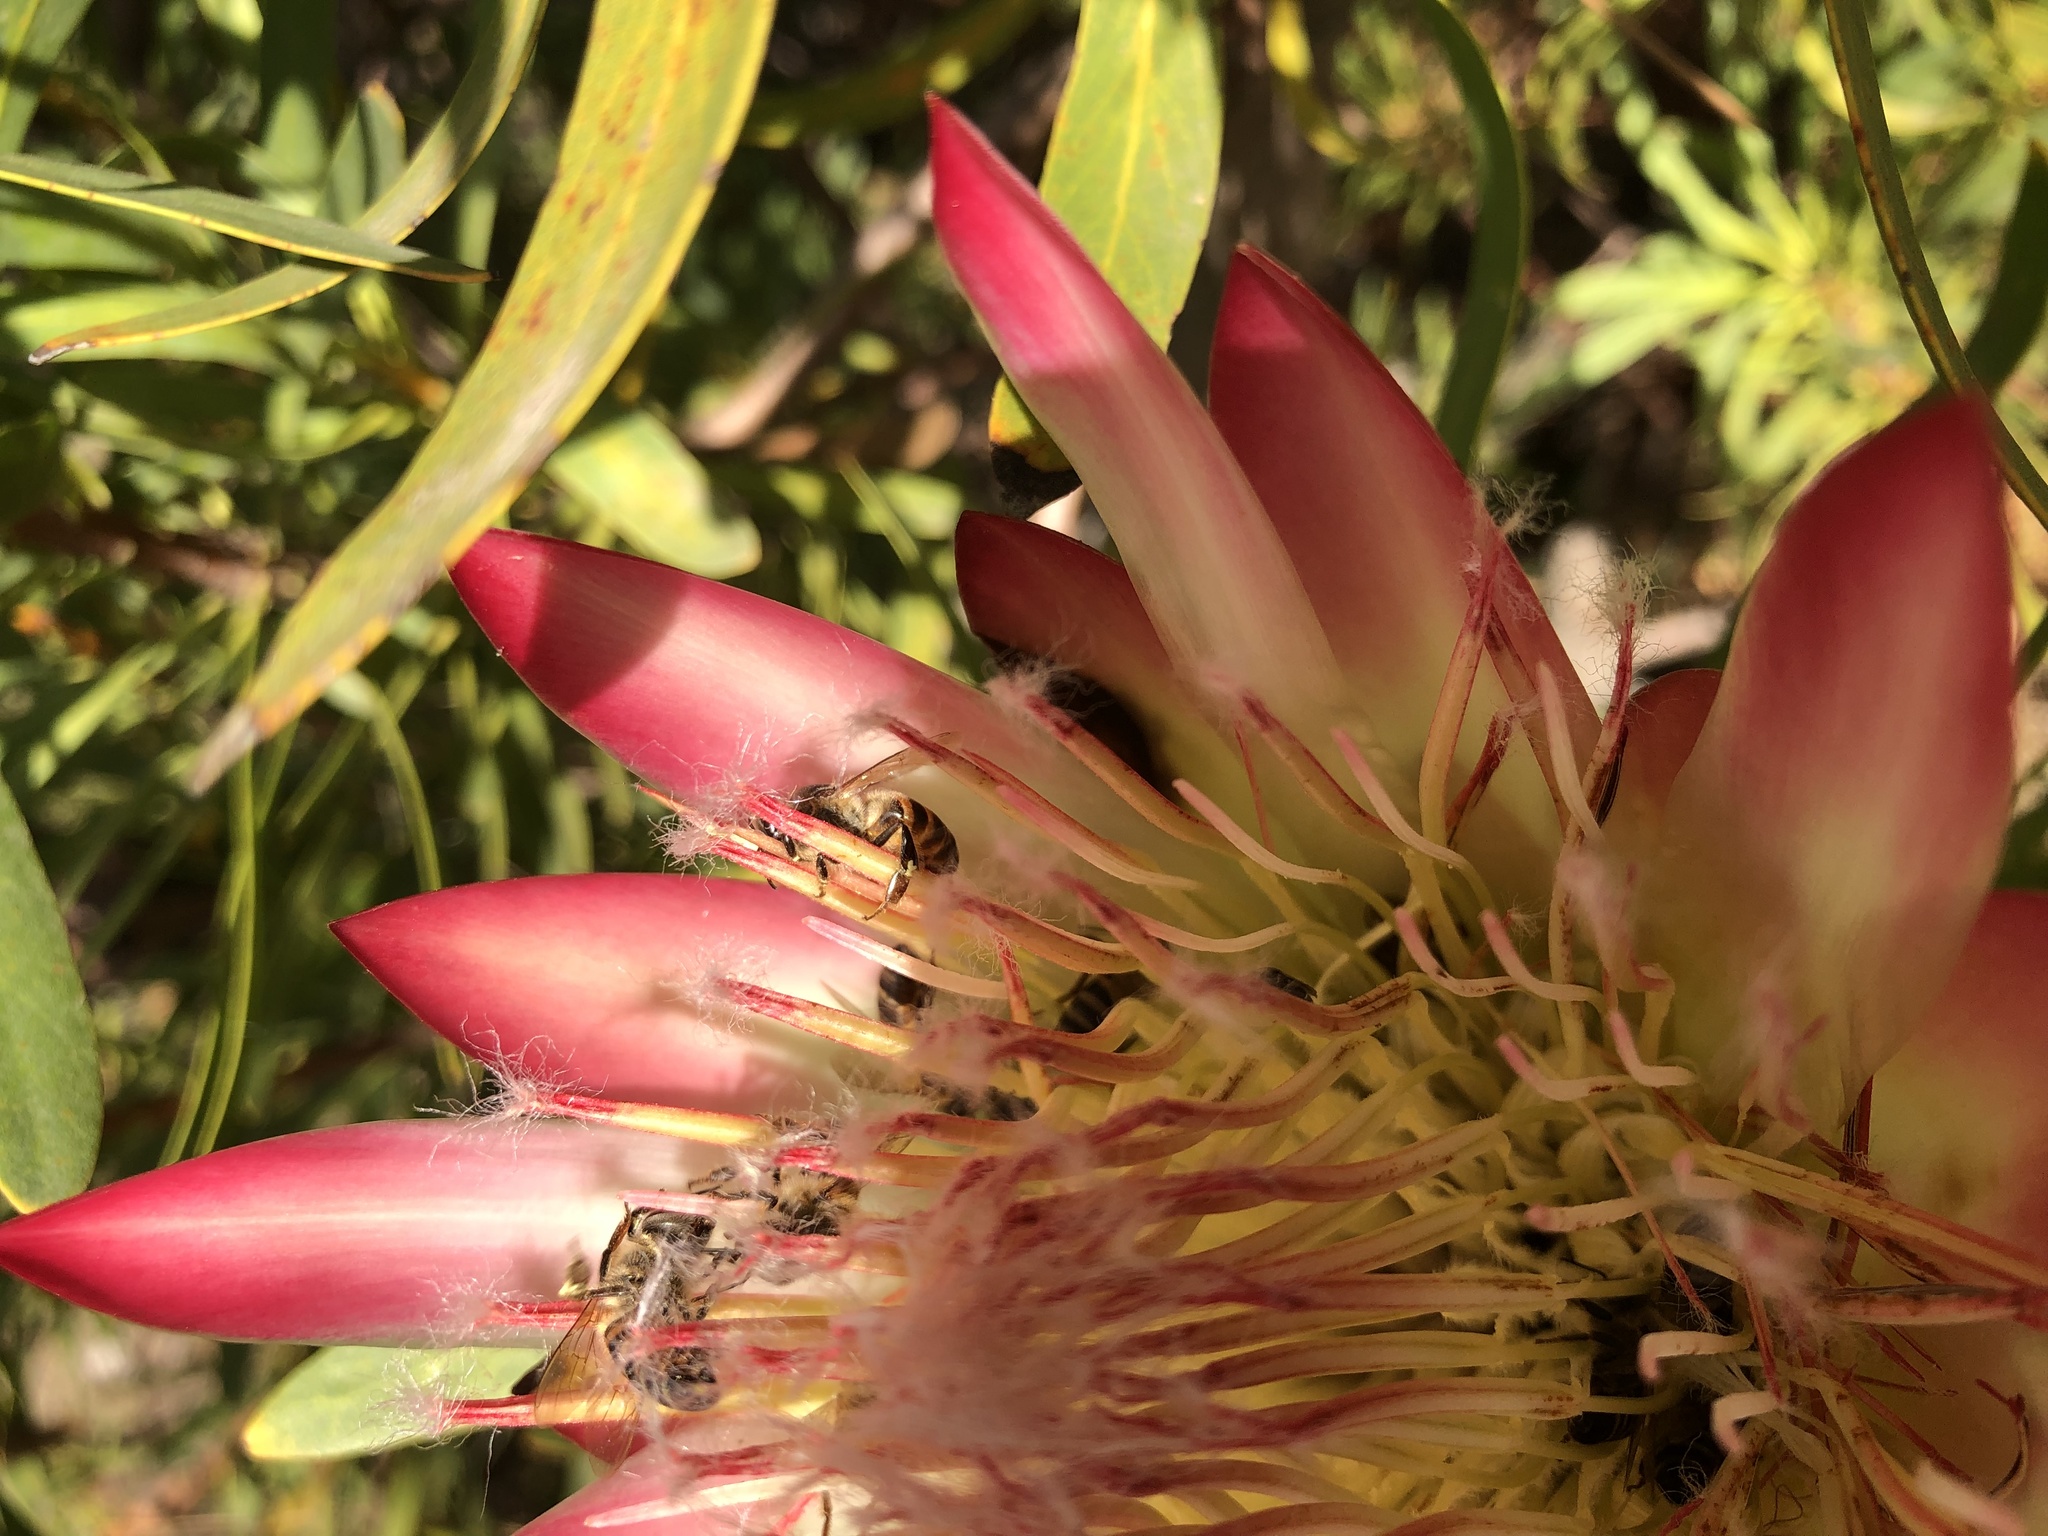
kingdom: Animalia
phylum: Arthropoda
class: Insecta
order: Hymenoptera
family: Apidae
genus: Apis
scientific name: Apis mellifera
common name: Honey bee
